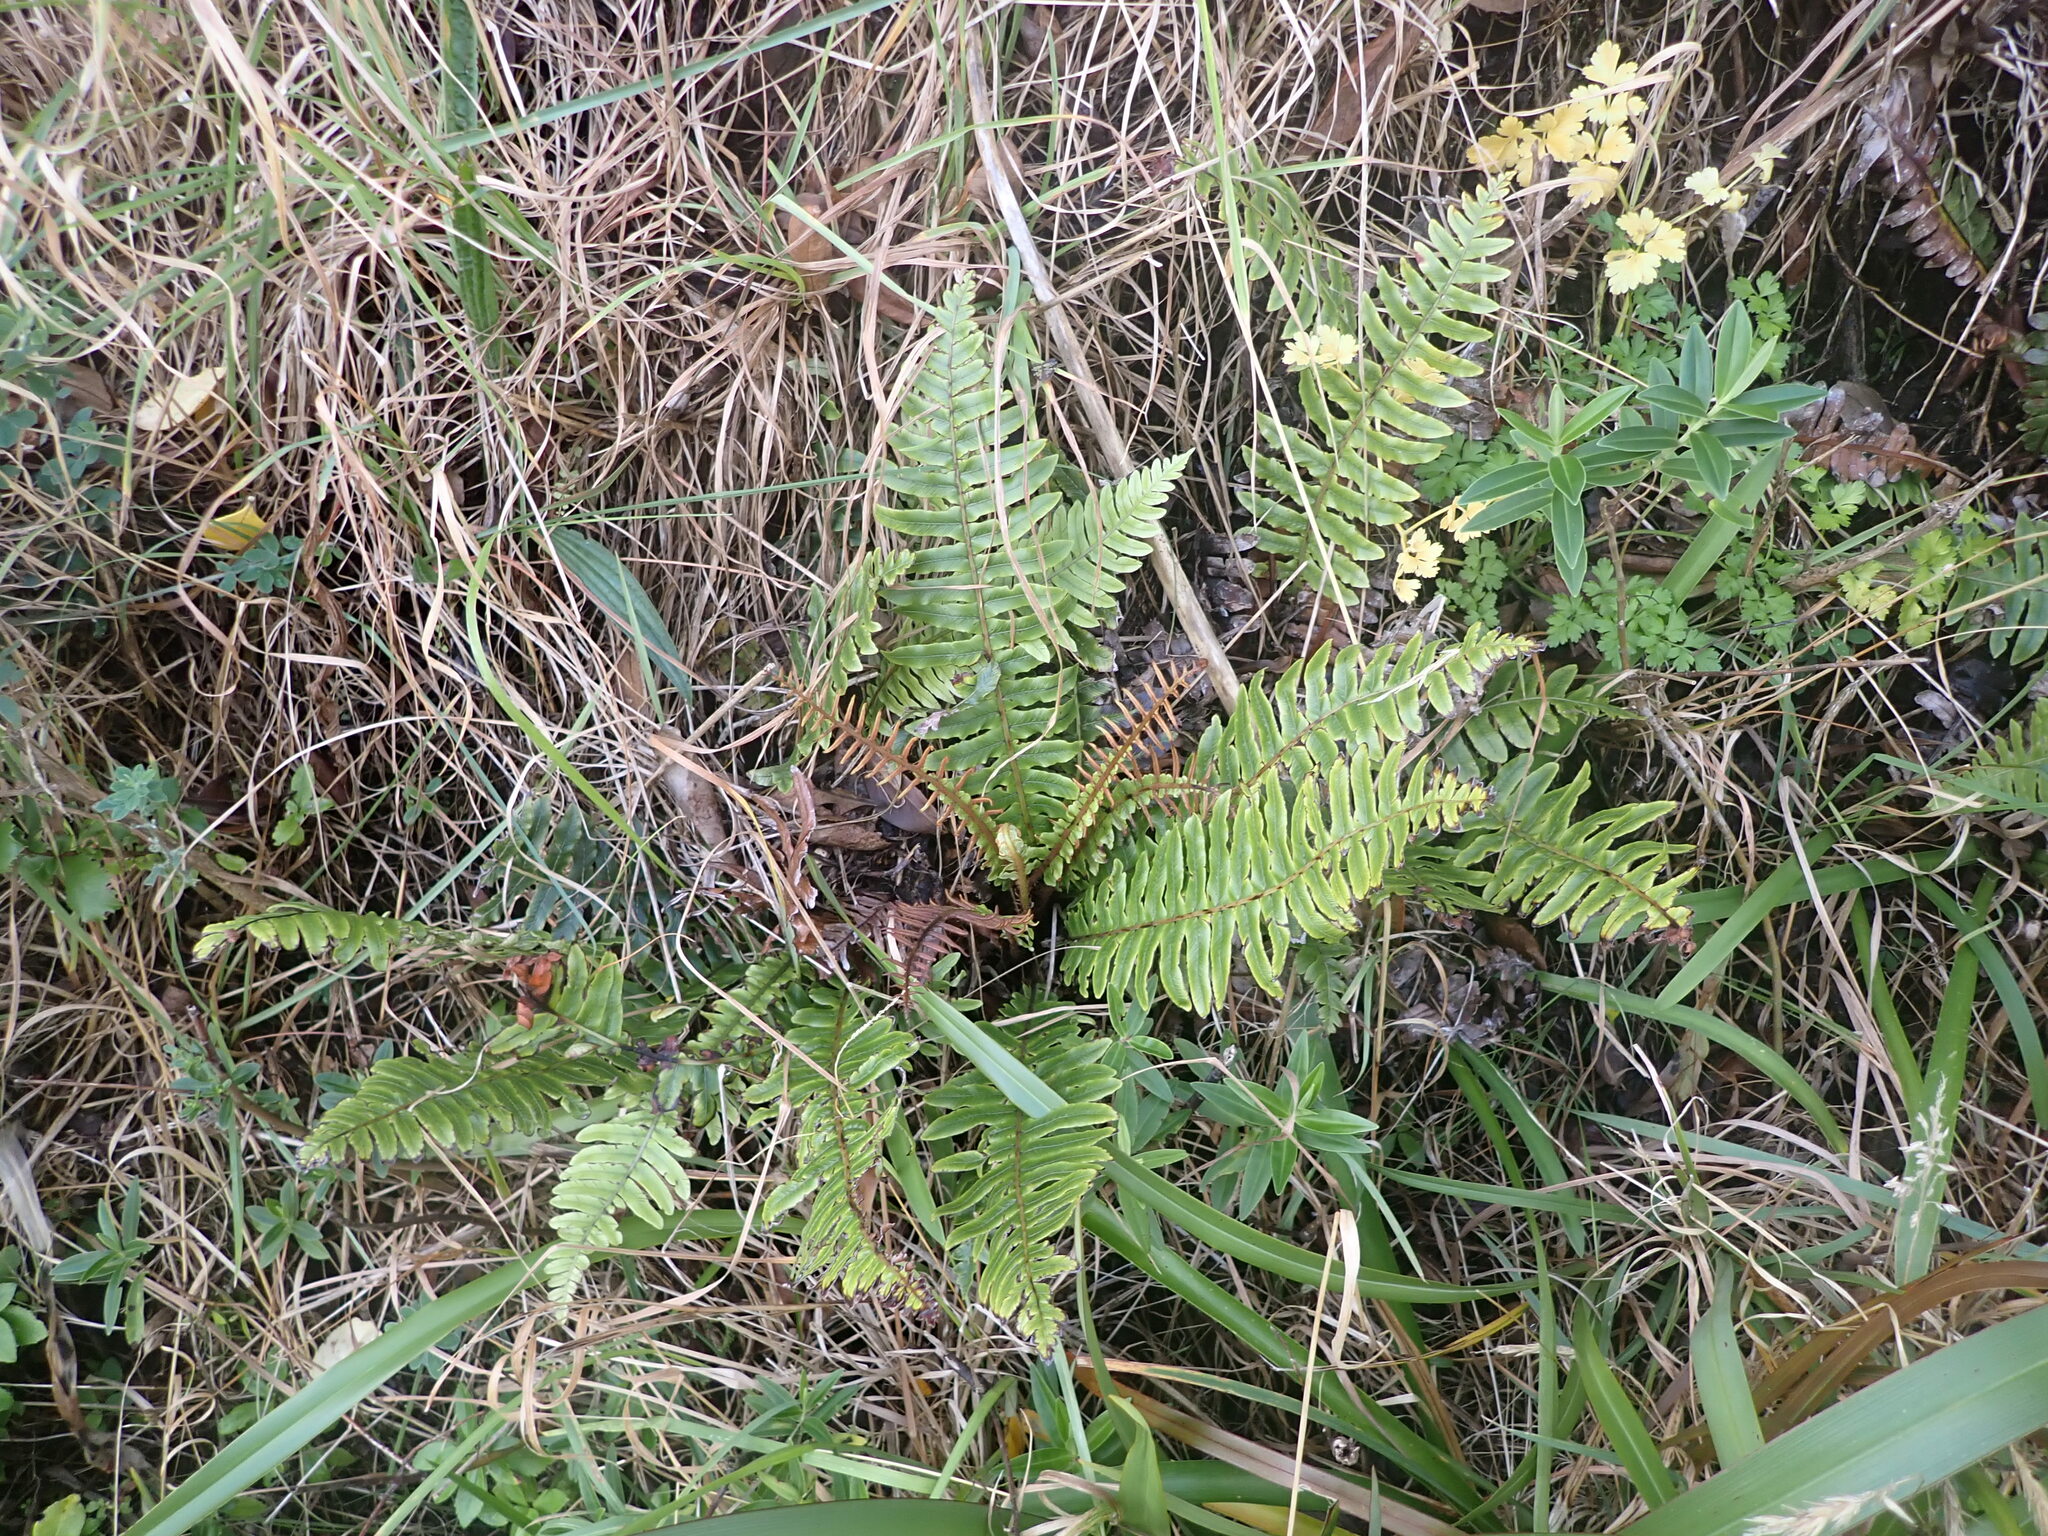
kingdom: Plantae
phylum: Tracheophyta
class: Polypodiopsida
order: Polypodiales
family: Blechnaceae
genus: Lomaria
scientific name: Lomaria discolor
